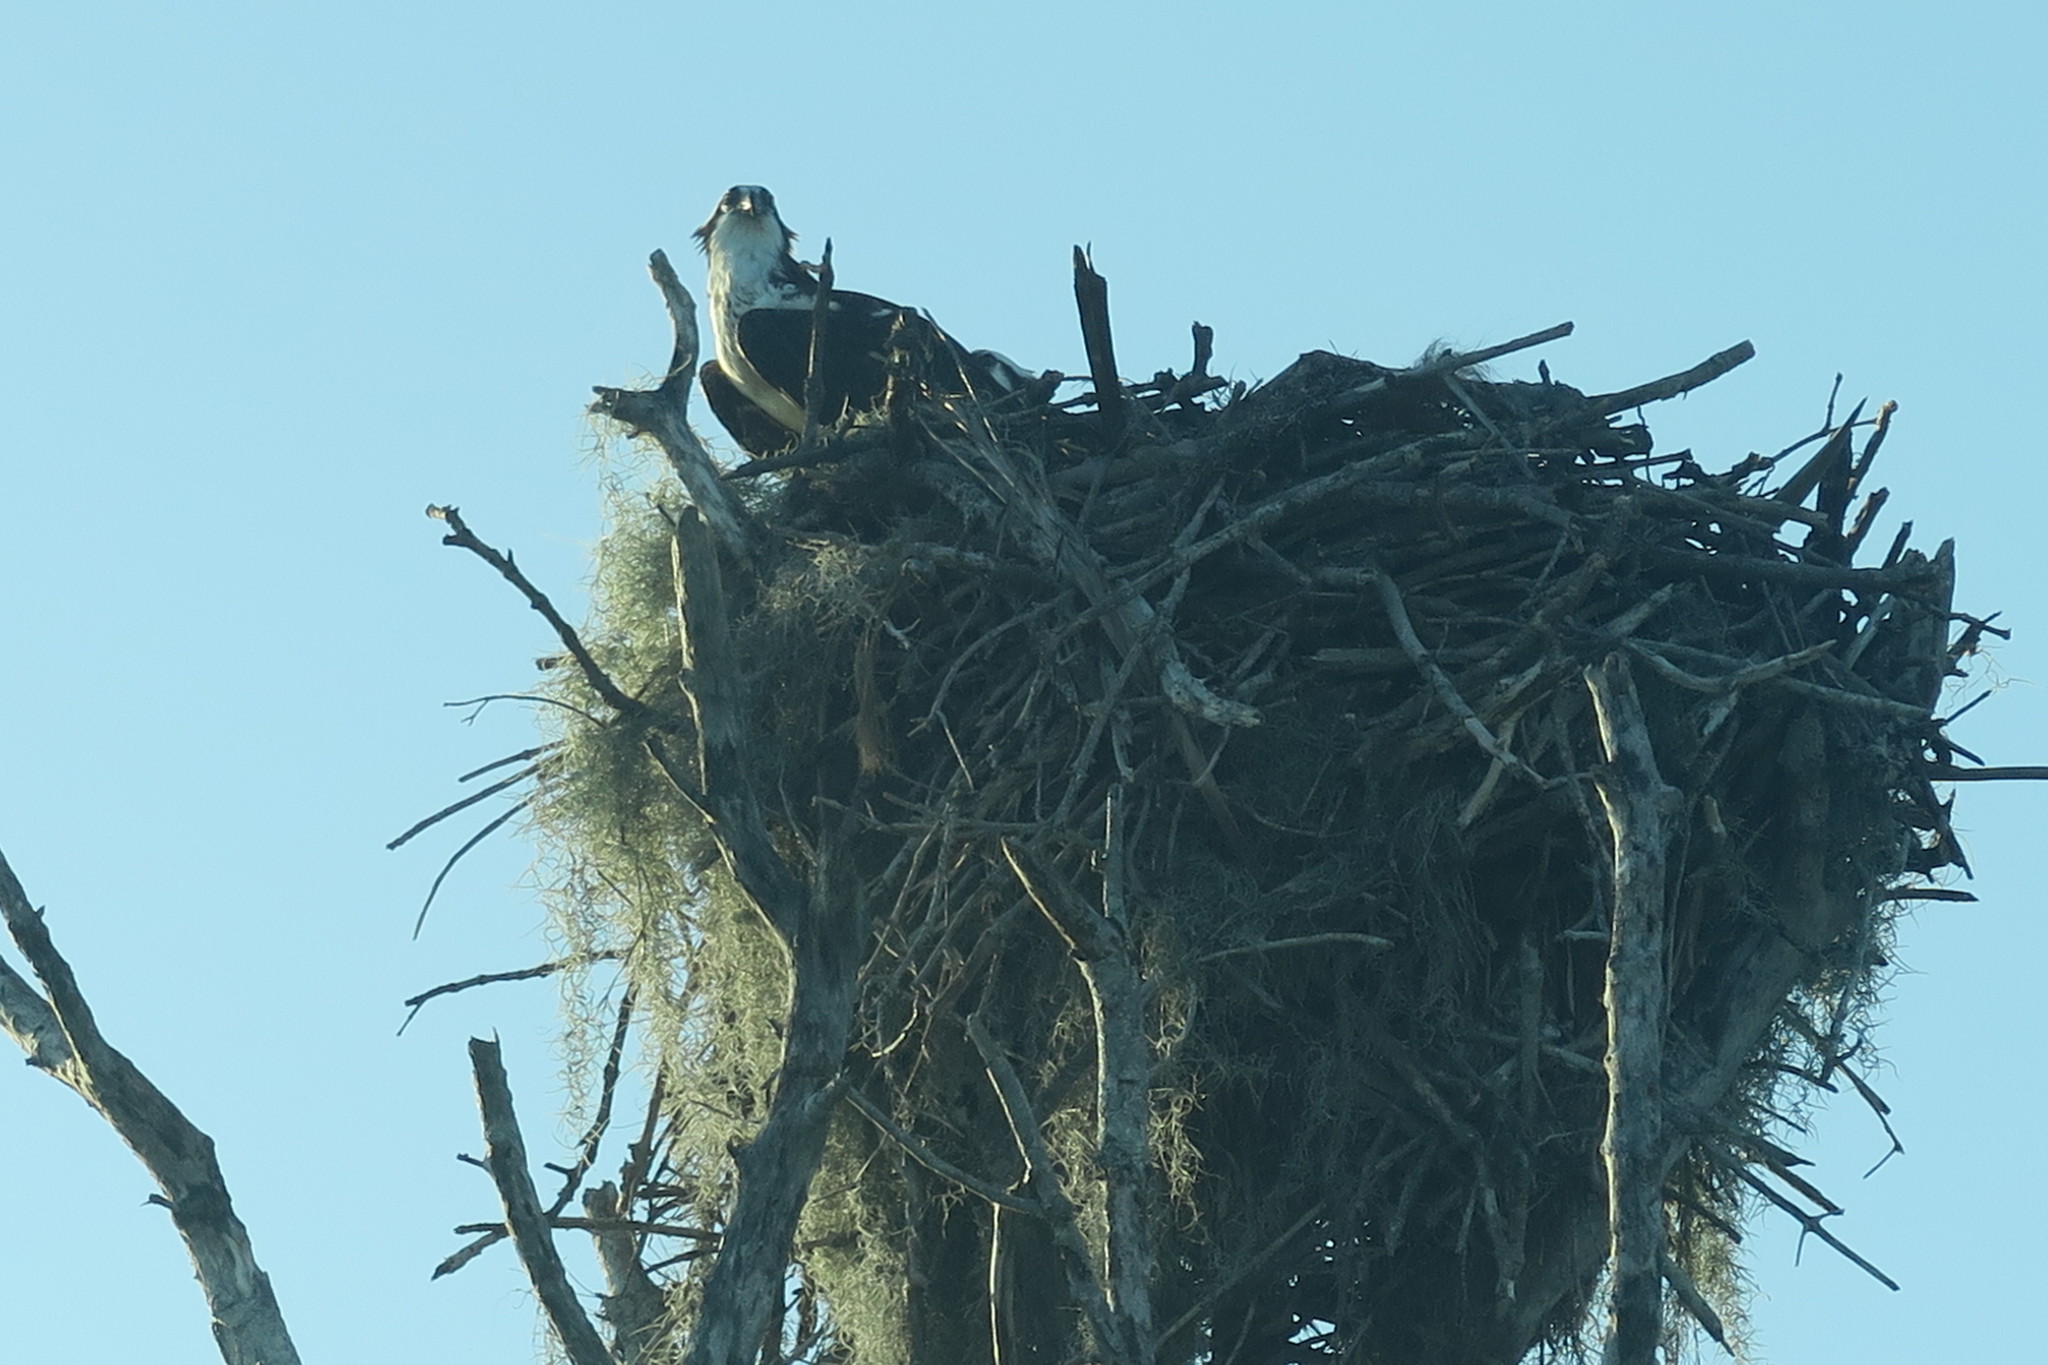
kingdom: Animalia
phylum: Chordata
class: Aves
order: Accipitriformes
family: Pandionidae
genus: Pandion
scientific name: Pandion haliaetus
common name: Osprey
